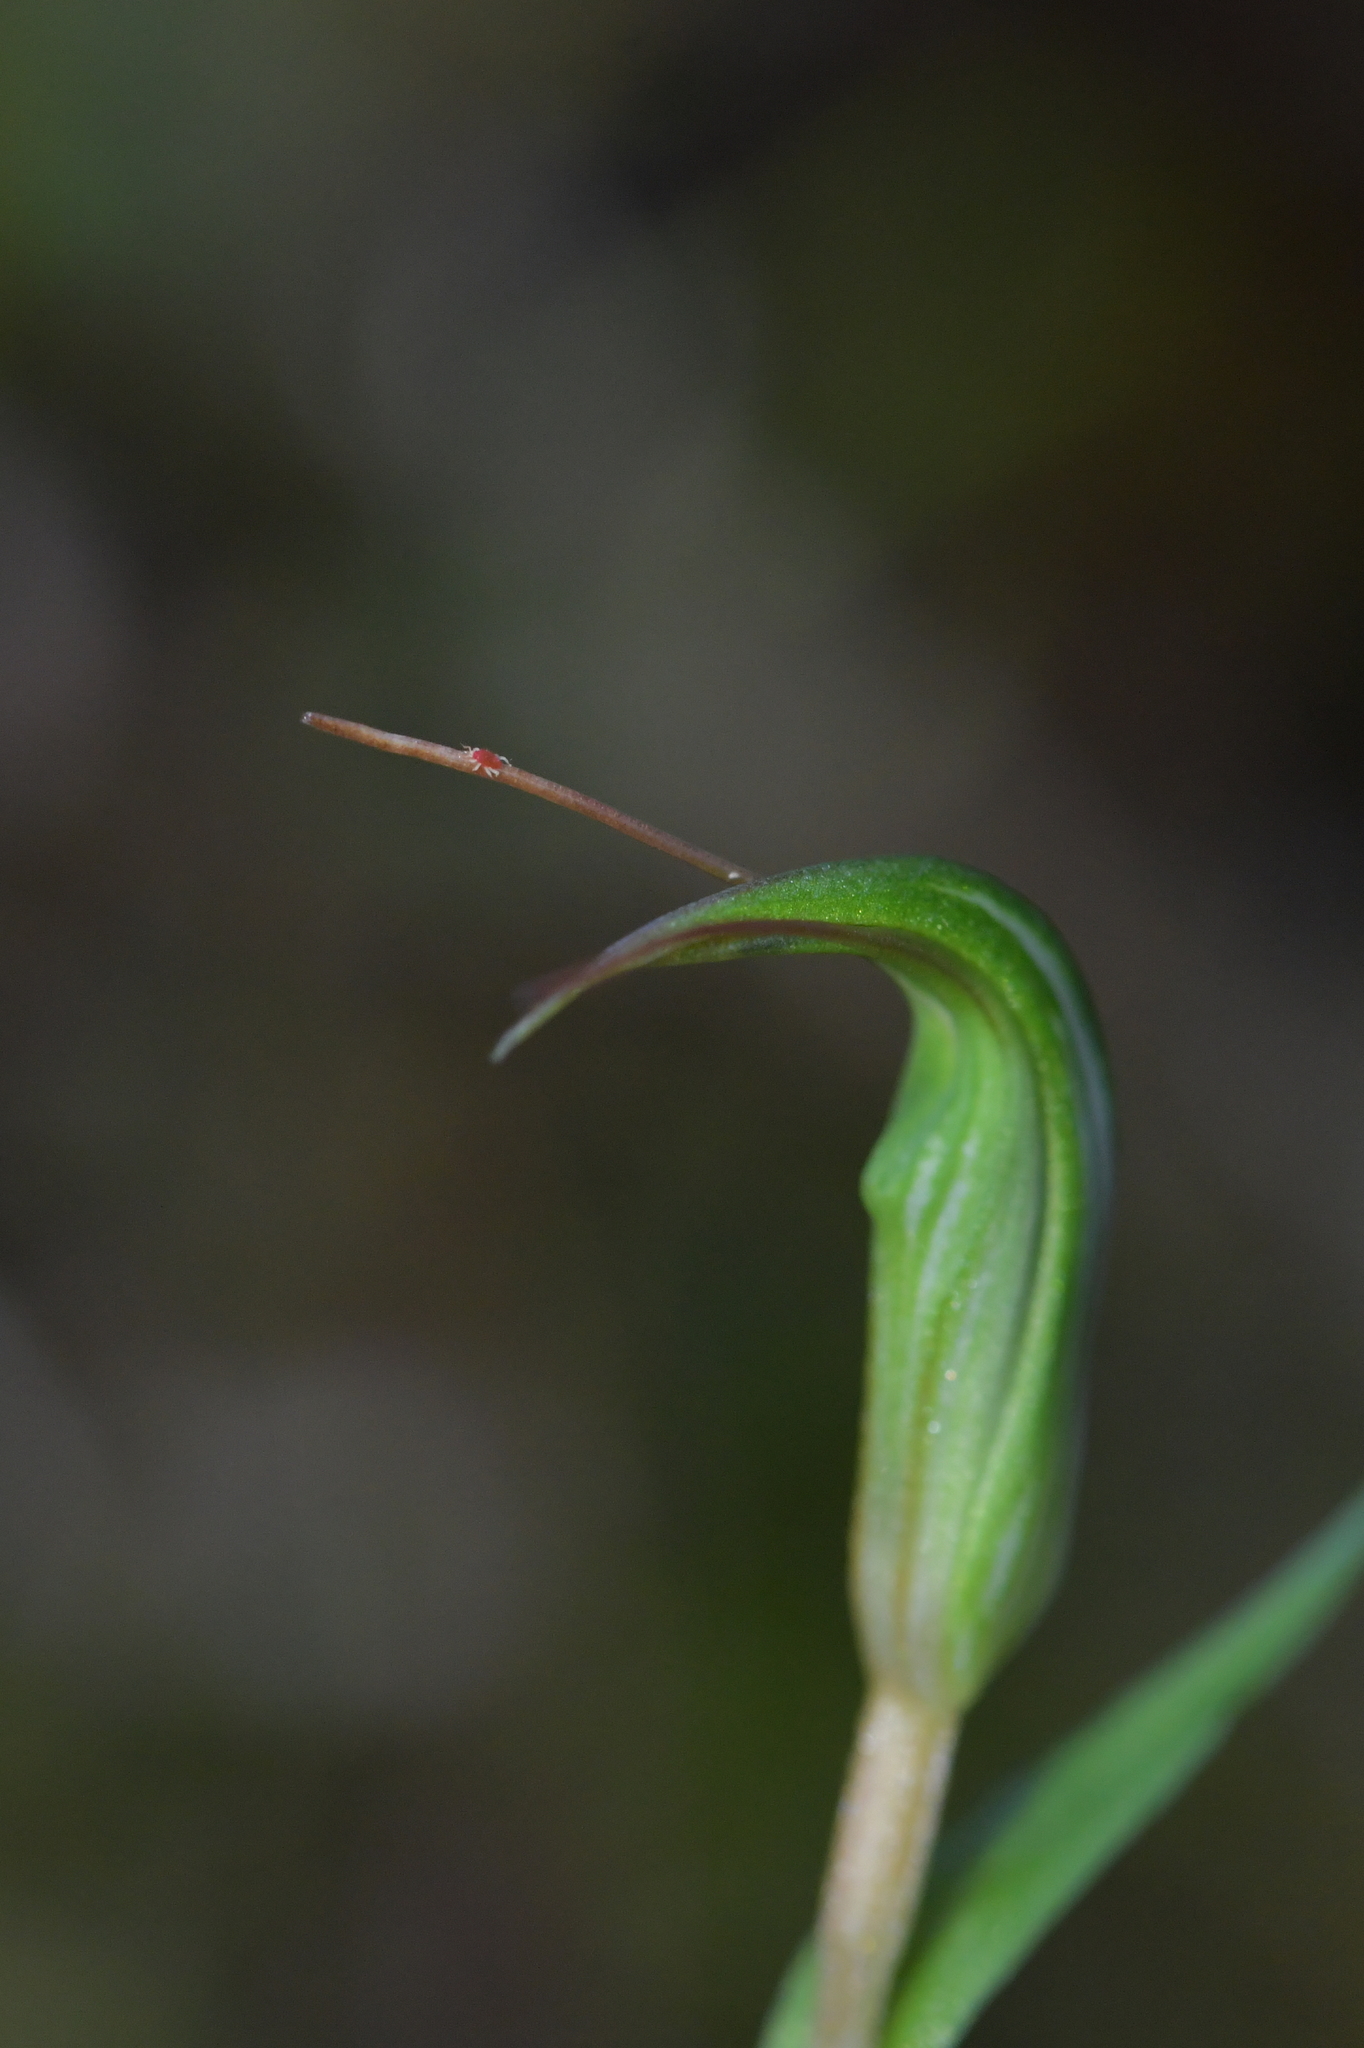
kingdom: Plantae
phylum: Tracheophyta
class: Liliopsida
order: Asparagales
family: Orchidaceae
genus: Pterostylis
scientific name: Pterostylis alobula
